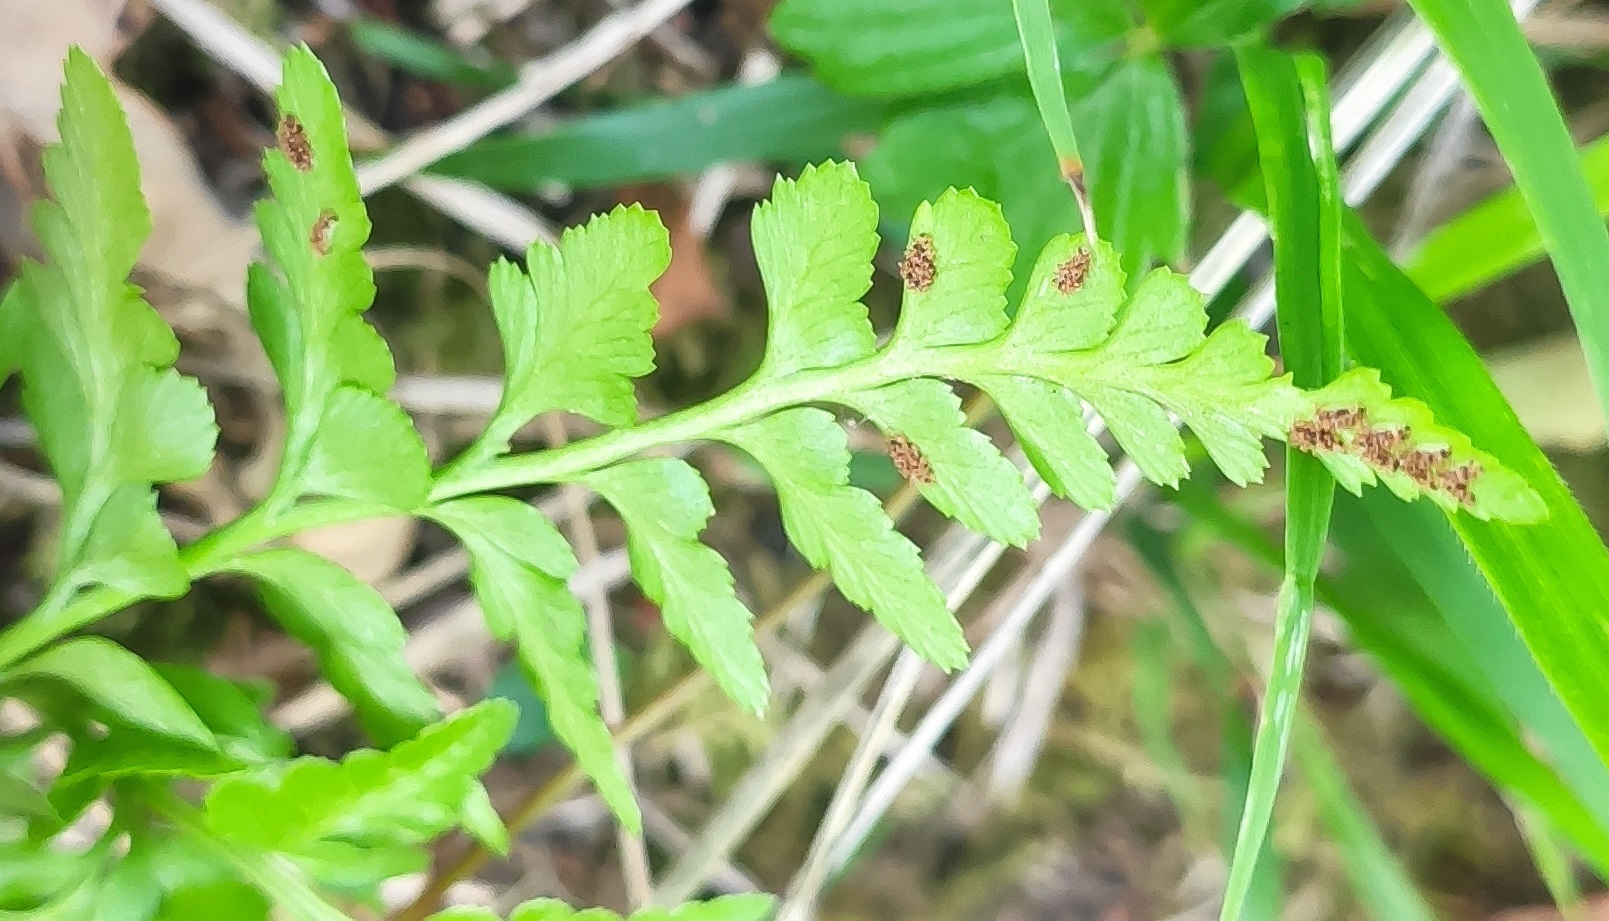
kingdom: Plantae
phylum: Tracheophyta
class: Polypodiopsida
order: Polypodiales
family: Aspleniaceae
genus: Asplenium
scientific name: Asplenium obovatum
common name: Lanceolate spleenwort
